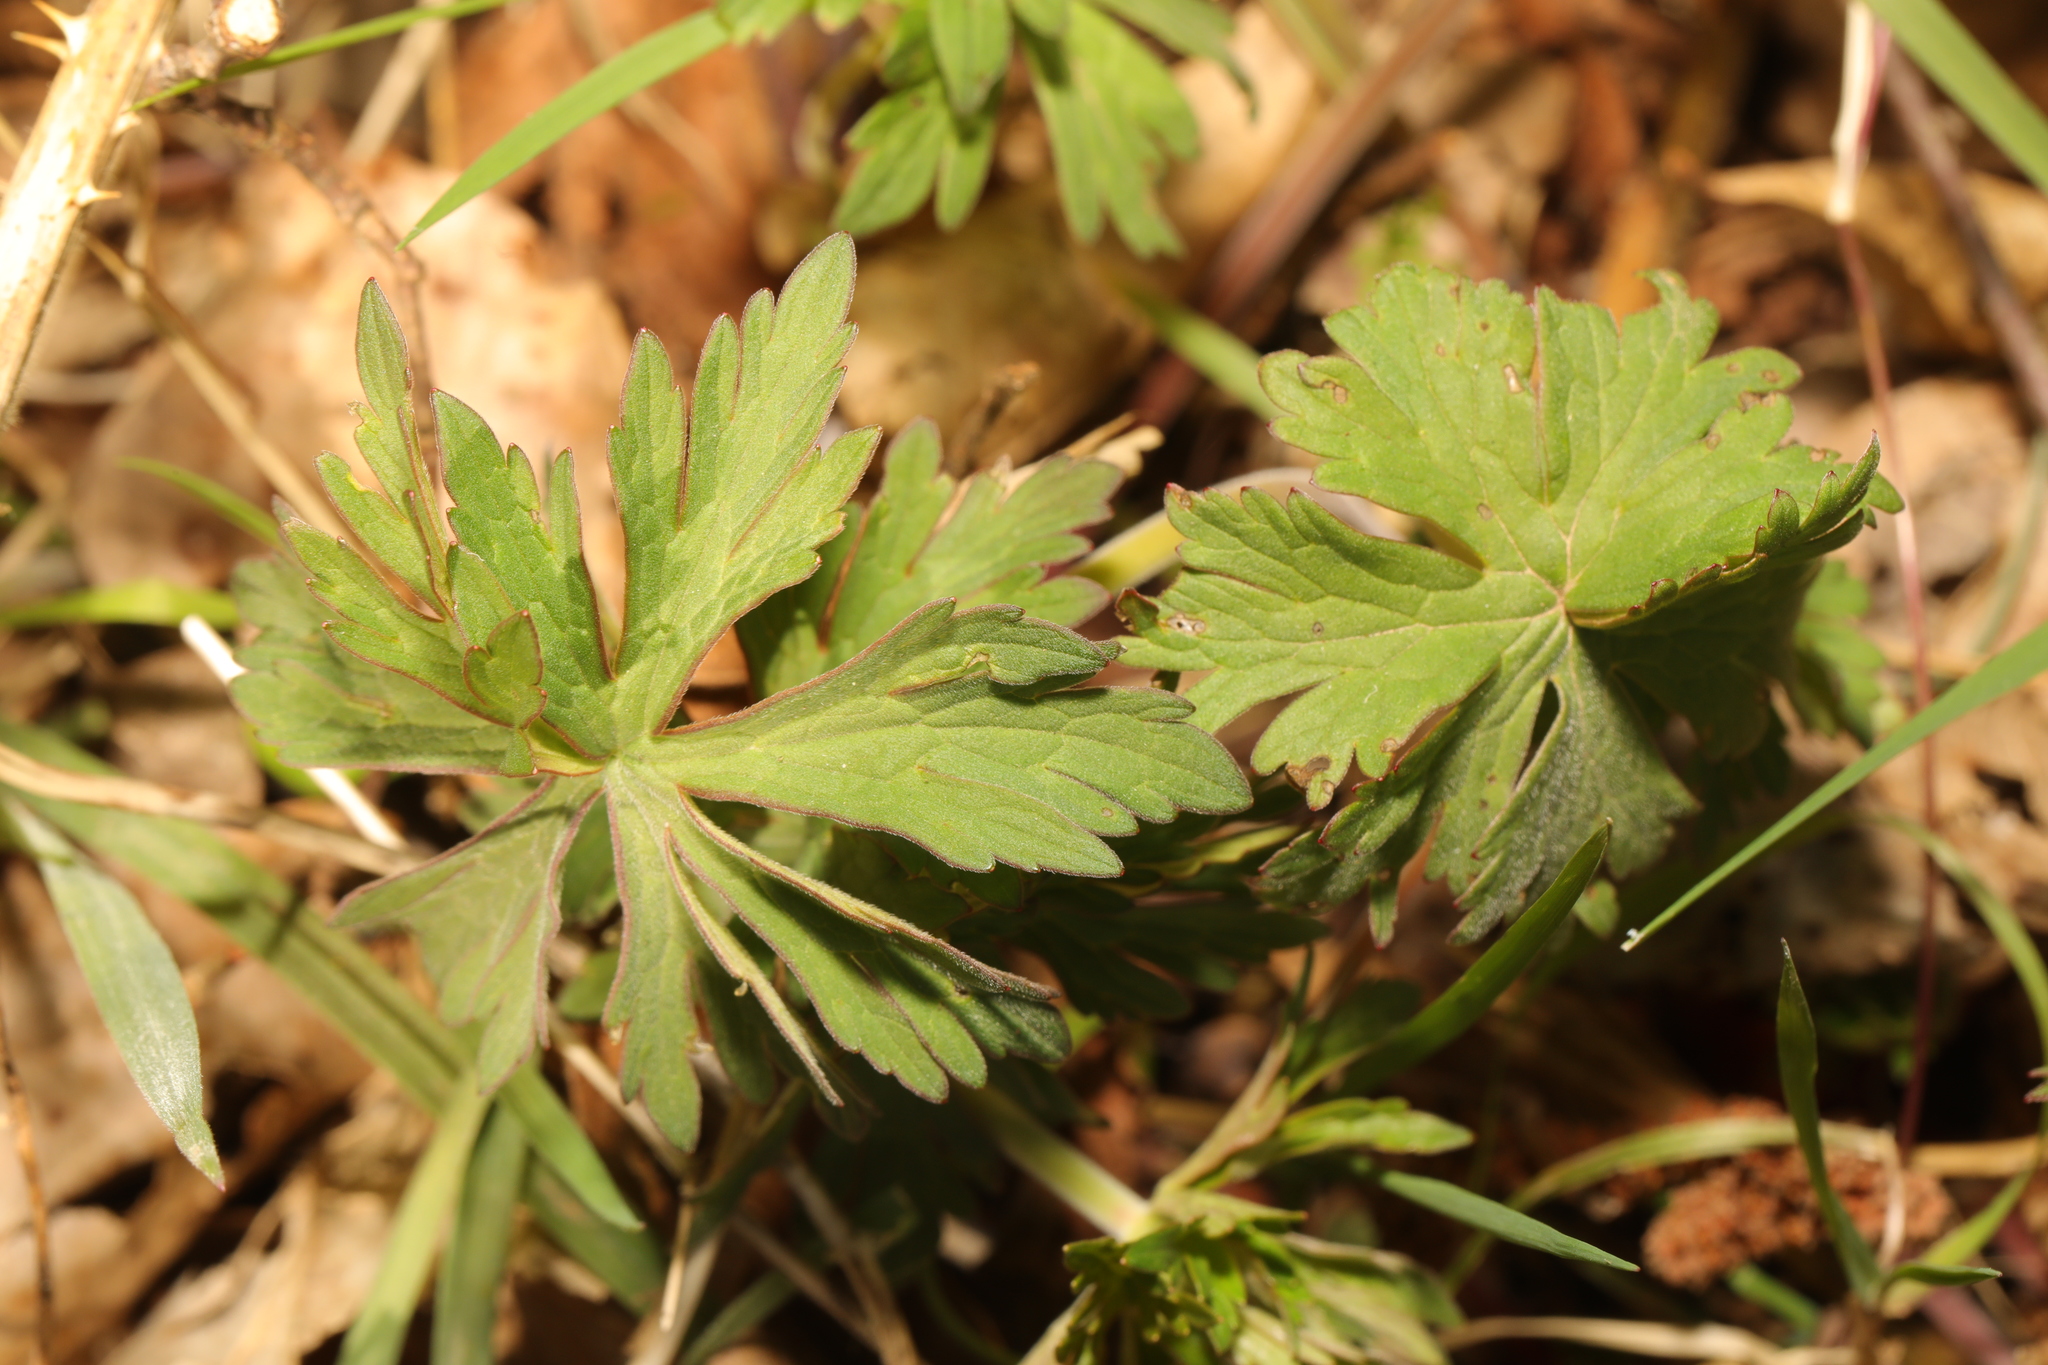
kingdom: Plantae
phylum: Tracheophyta
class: Magnoliopsida
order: Geraniales
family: Geraniaceae
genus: Geranium
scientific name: Geranium pratense
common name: Meadow crane's-bill
